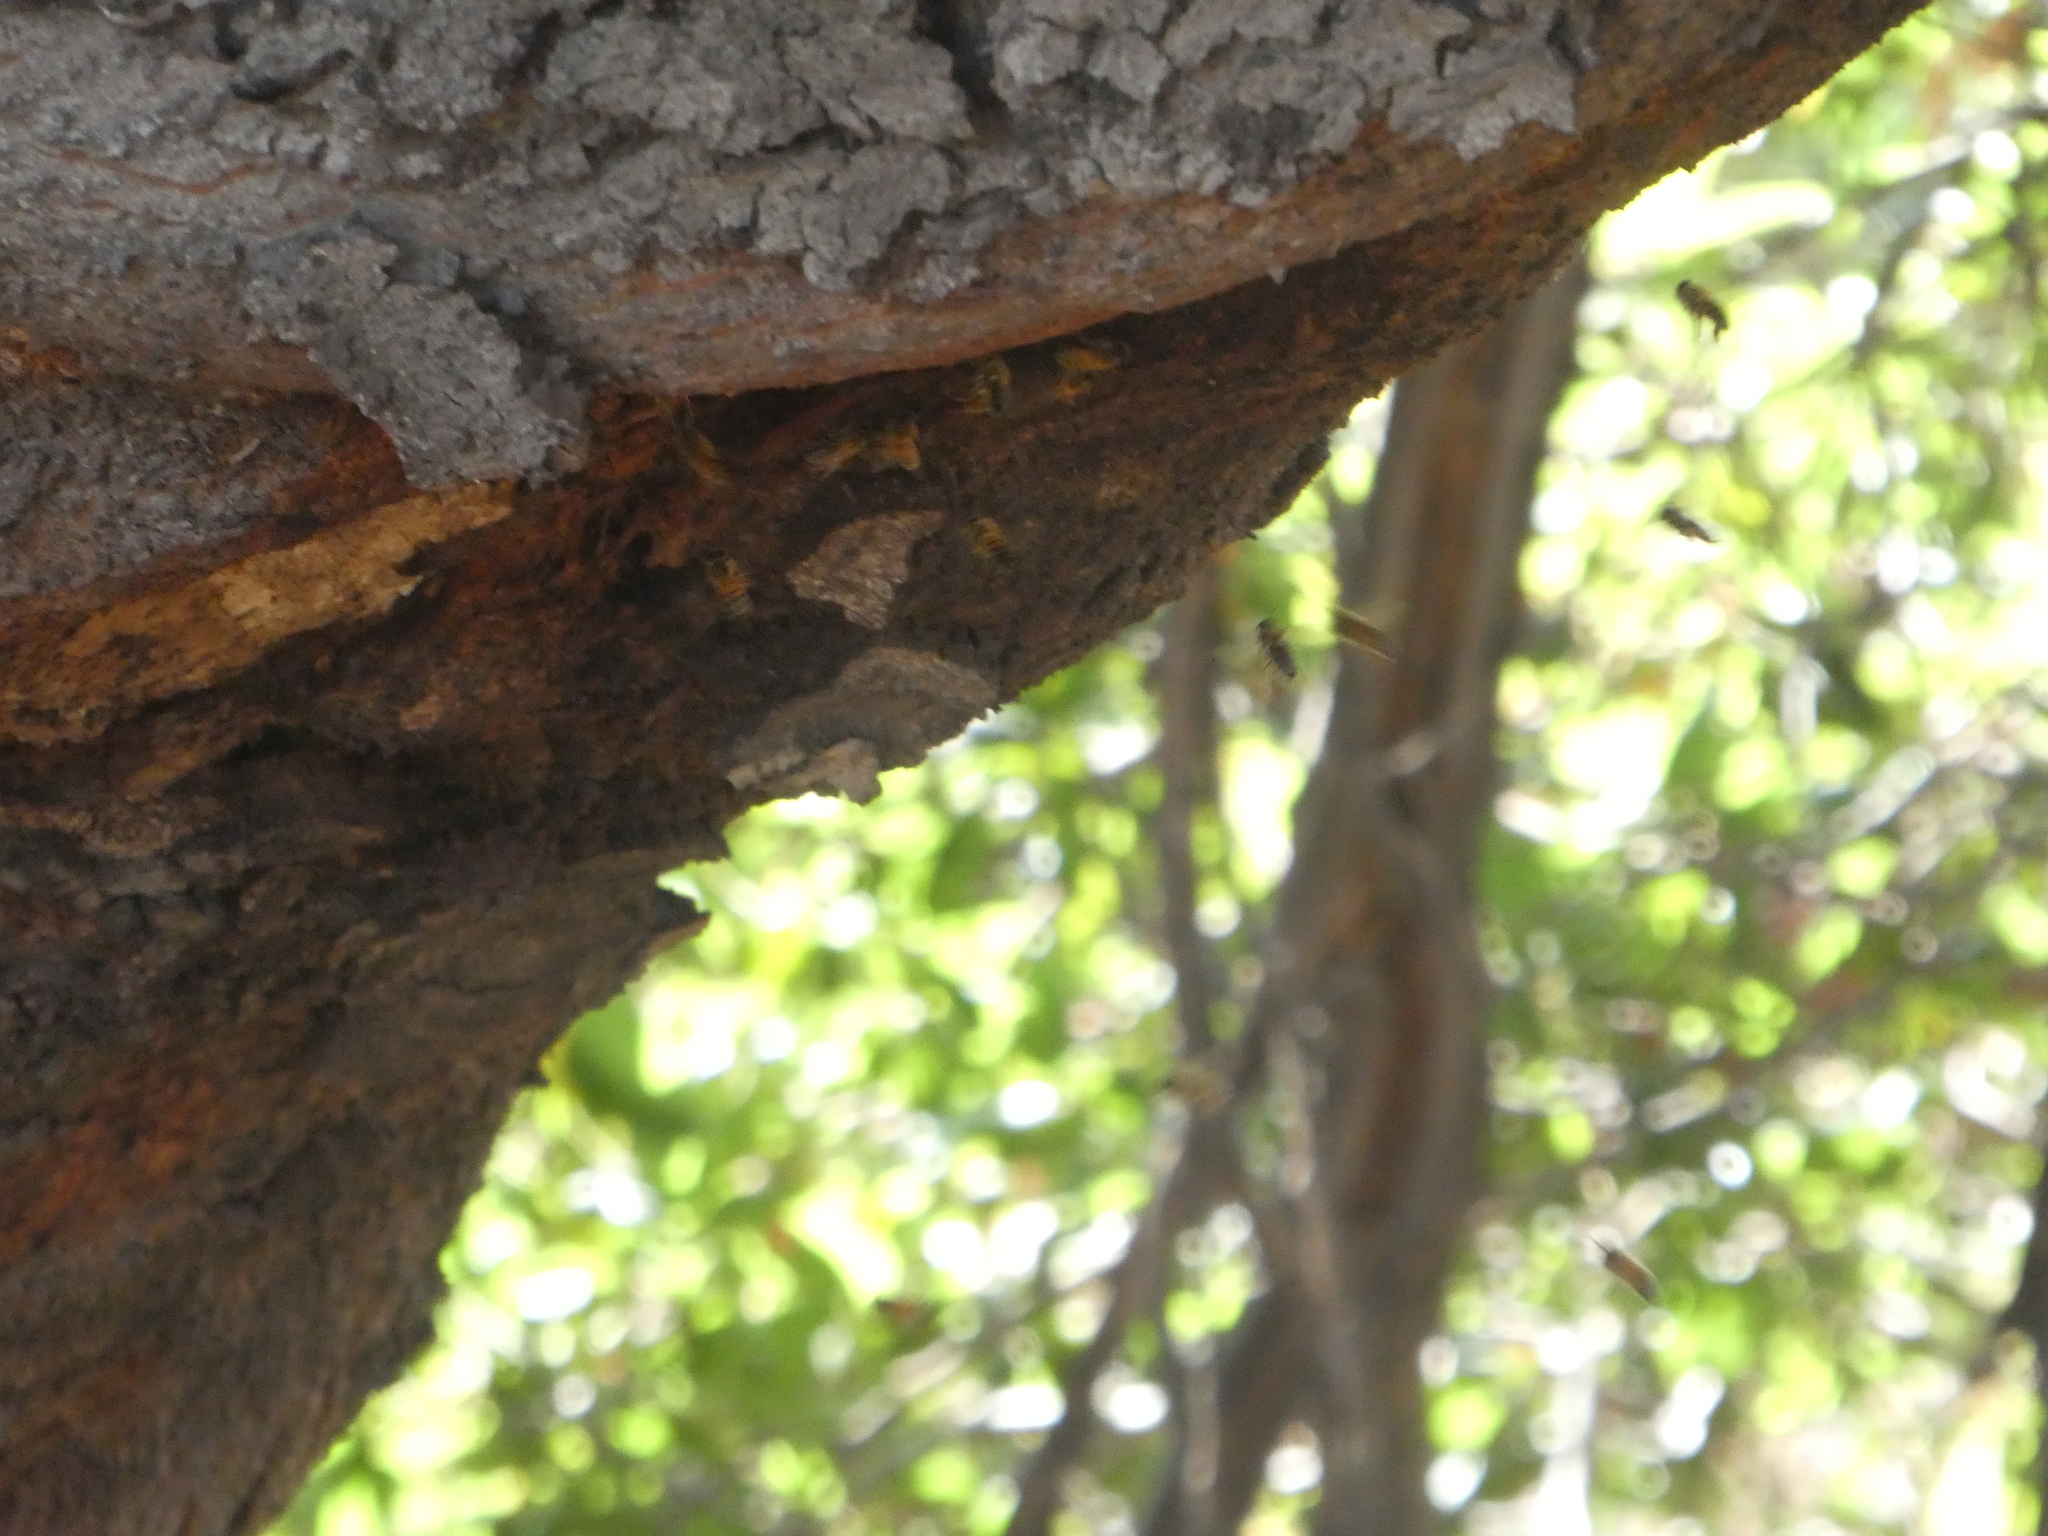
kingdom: Animalia
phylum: Arthropoda
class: Insecta
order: Hymenoptera
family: Apidae
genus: Apis
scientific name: Apis mellifera
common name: Honey bee
